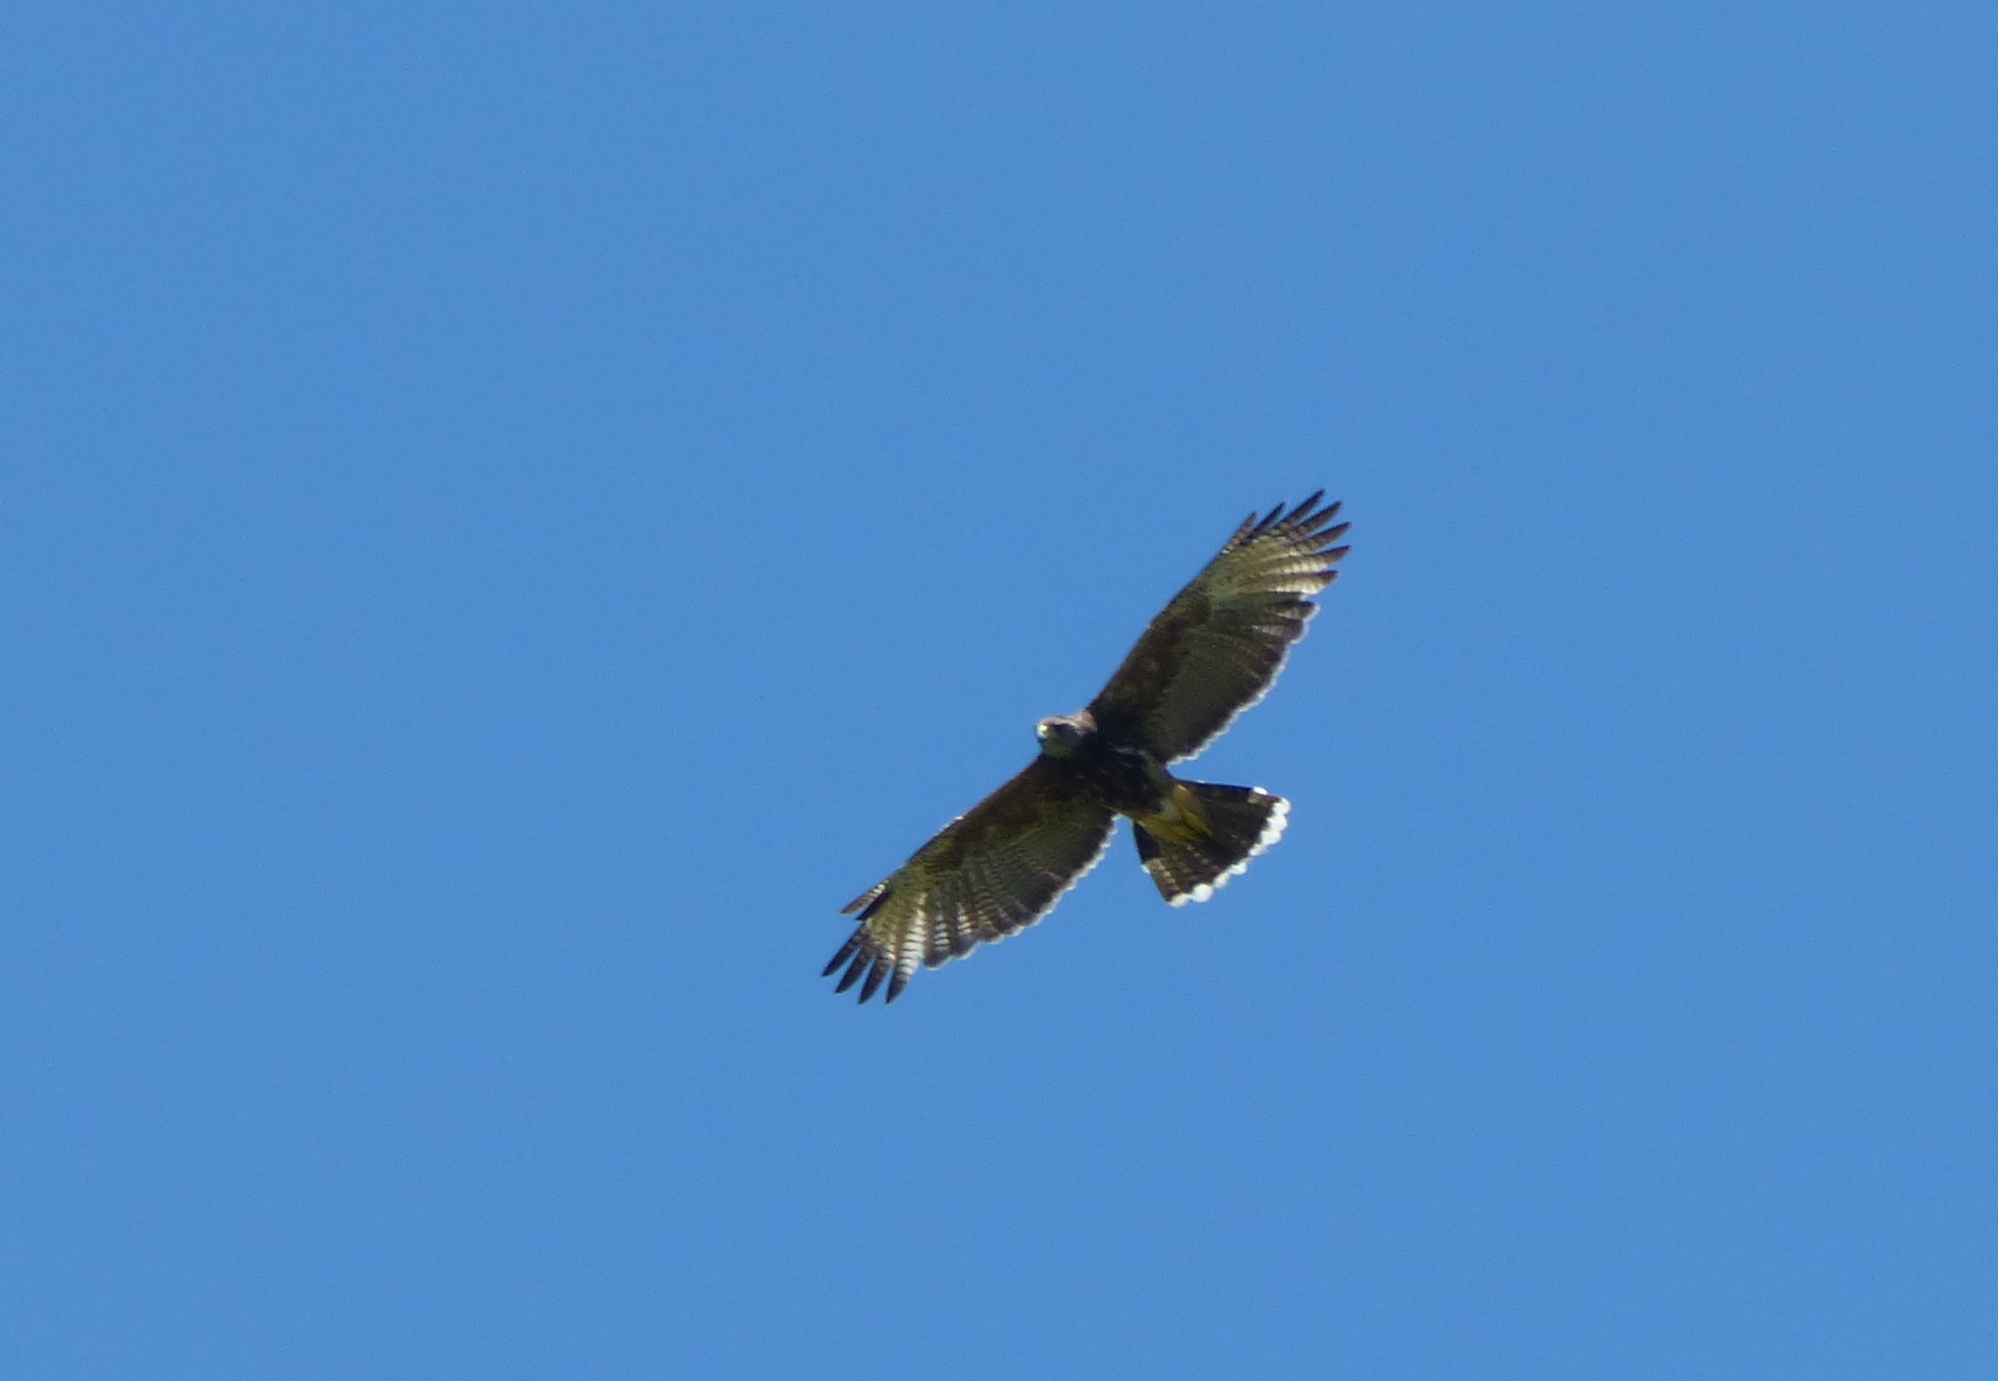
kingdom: Animalia
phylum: Chordata
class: Aves
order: Accipitriformes
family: Accipitridae
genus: Parabuteo
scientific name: Parabuteo unicinctus
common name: Harris's hawk
